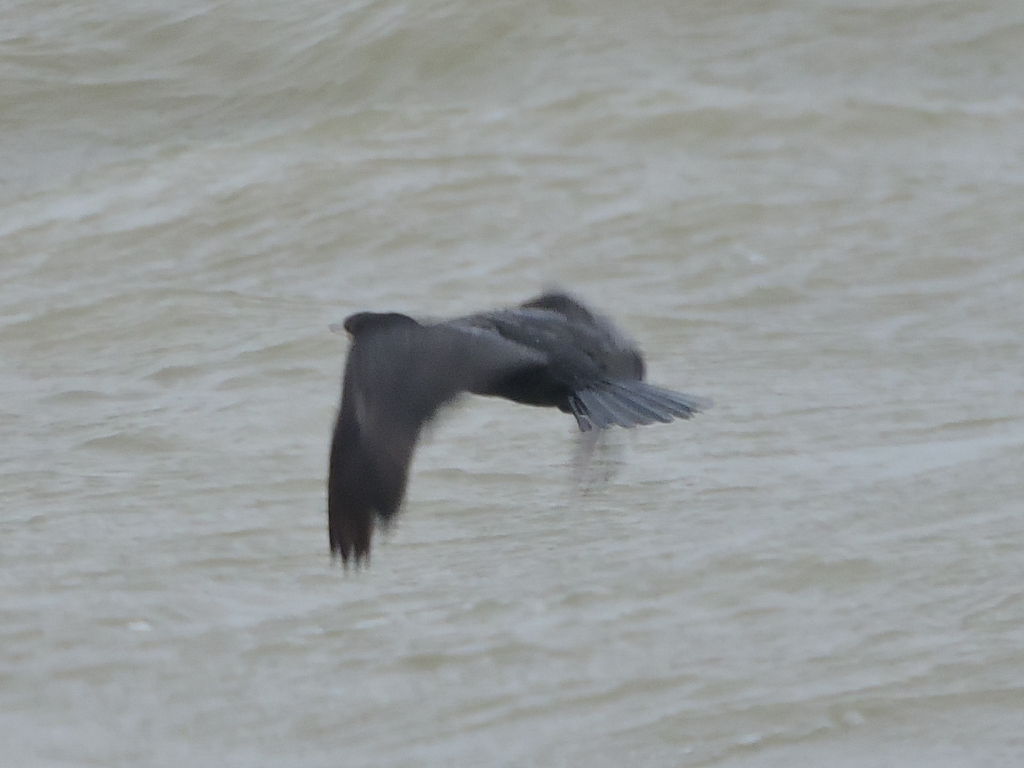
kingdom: Animalia
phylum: Chordata
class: Aves
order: Suliformes
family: Phalacrocoracidae
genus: Phalacrocorax
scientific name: Phalacrocorax auritus
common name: Double-crested cormorant
